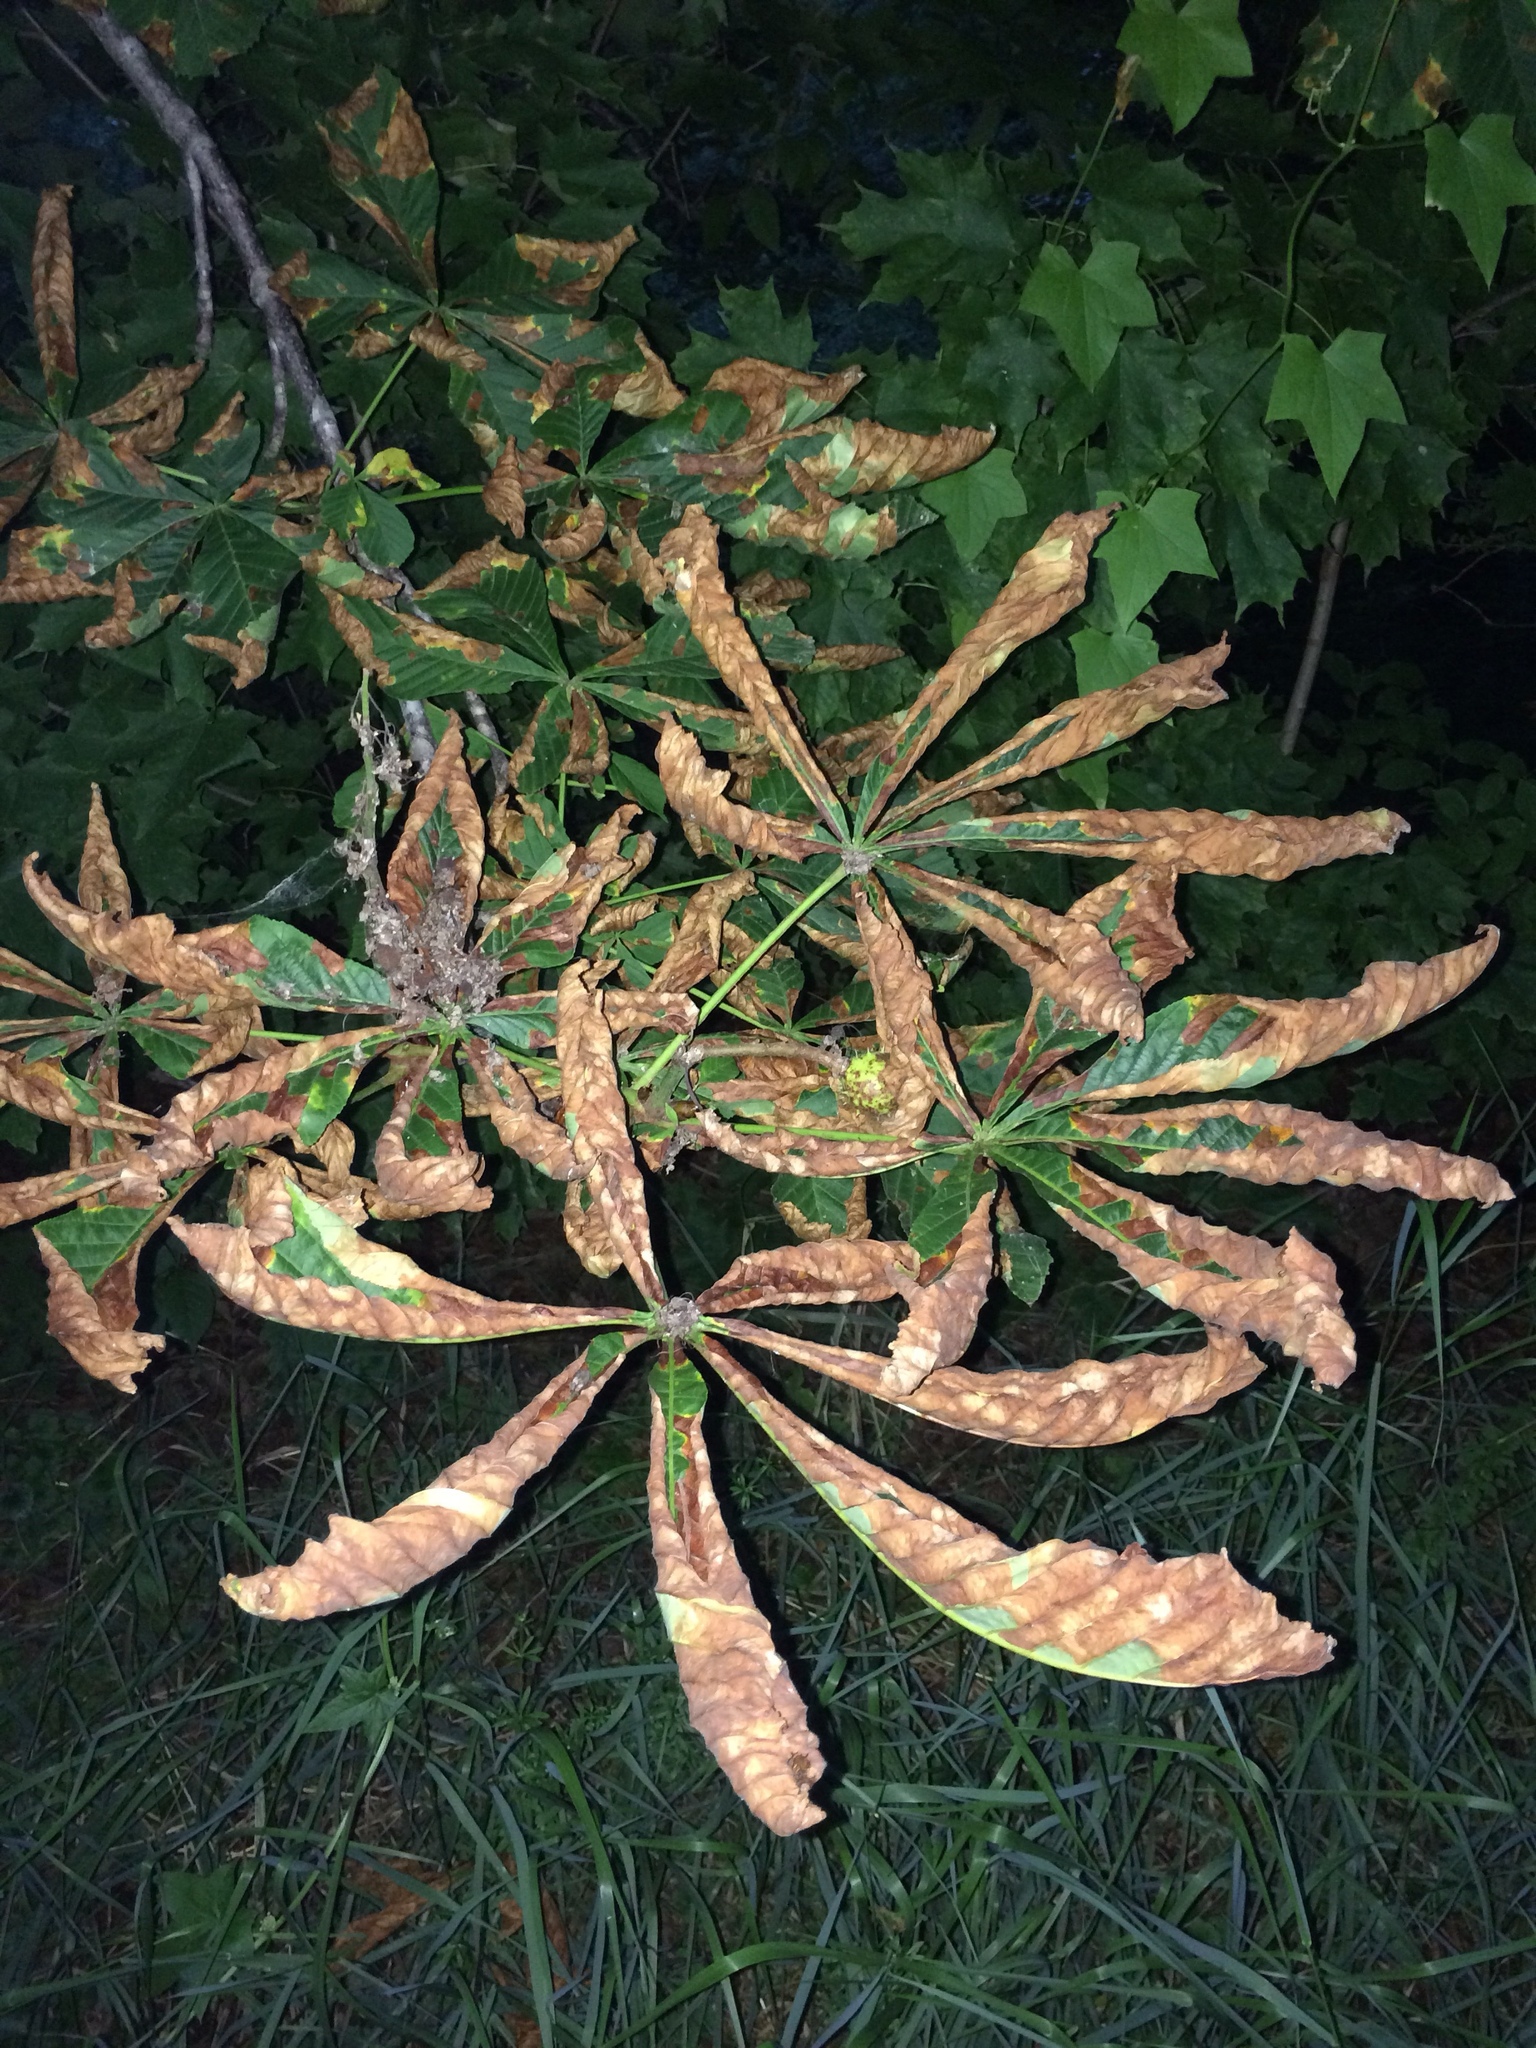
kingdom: Plantae
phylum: Tracheophyta
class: Magnoliopsida
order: Sapindales
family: Sapindaceae
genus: Aesculus
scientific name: Aesculus hippocastanum
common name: Horse-chestnut
